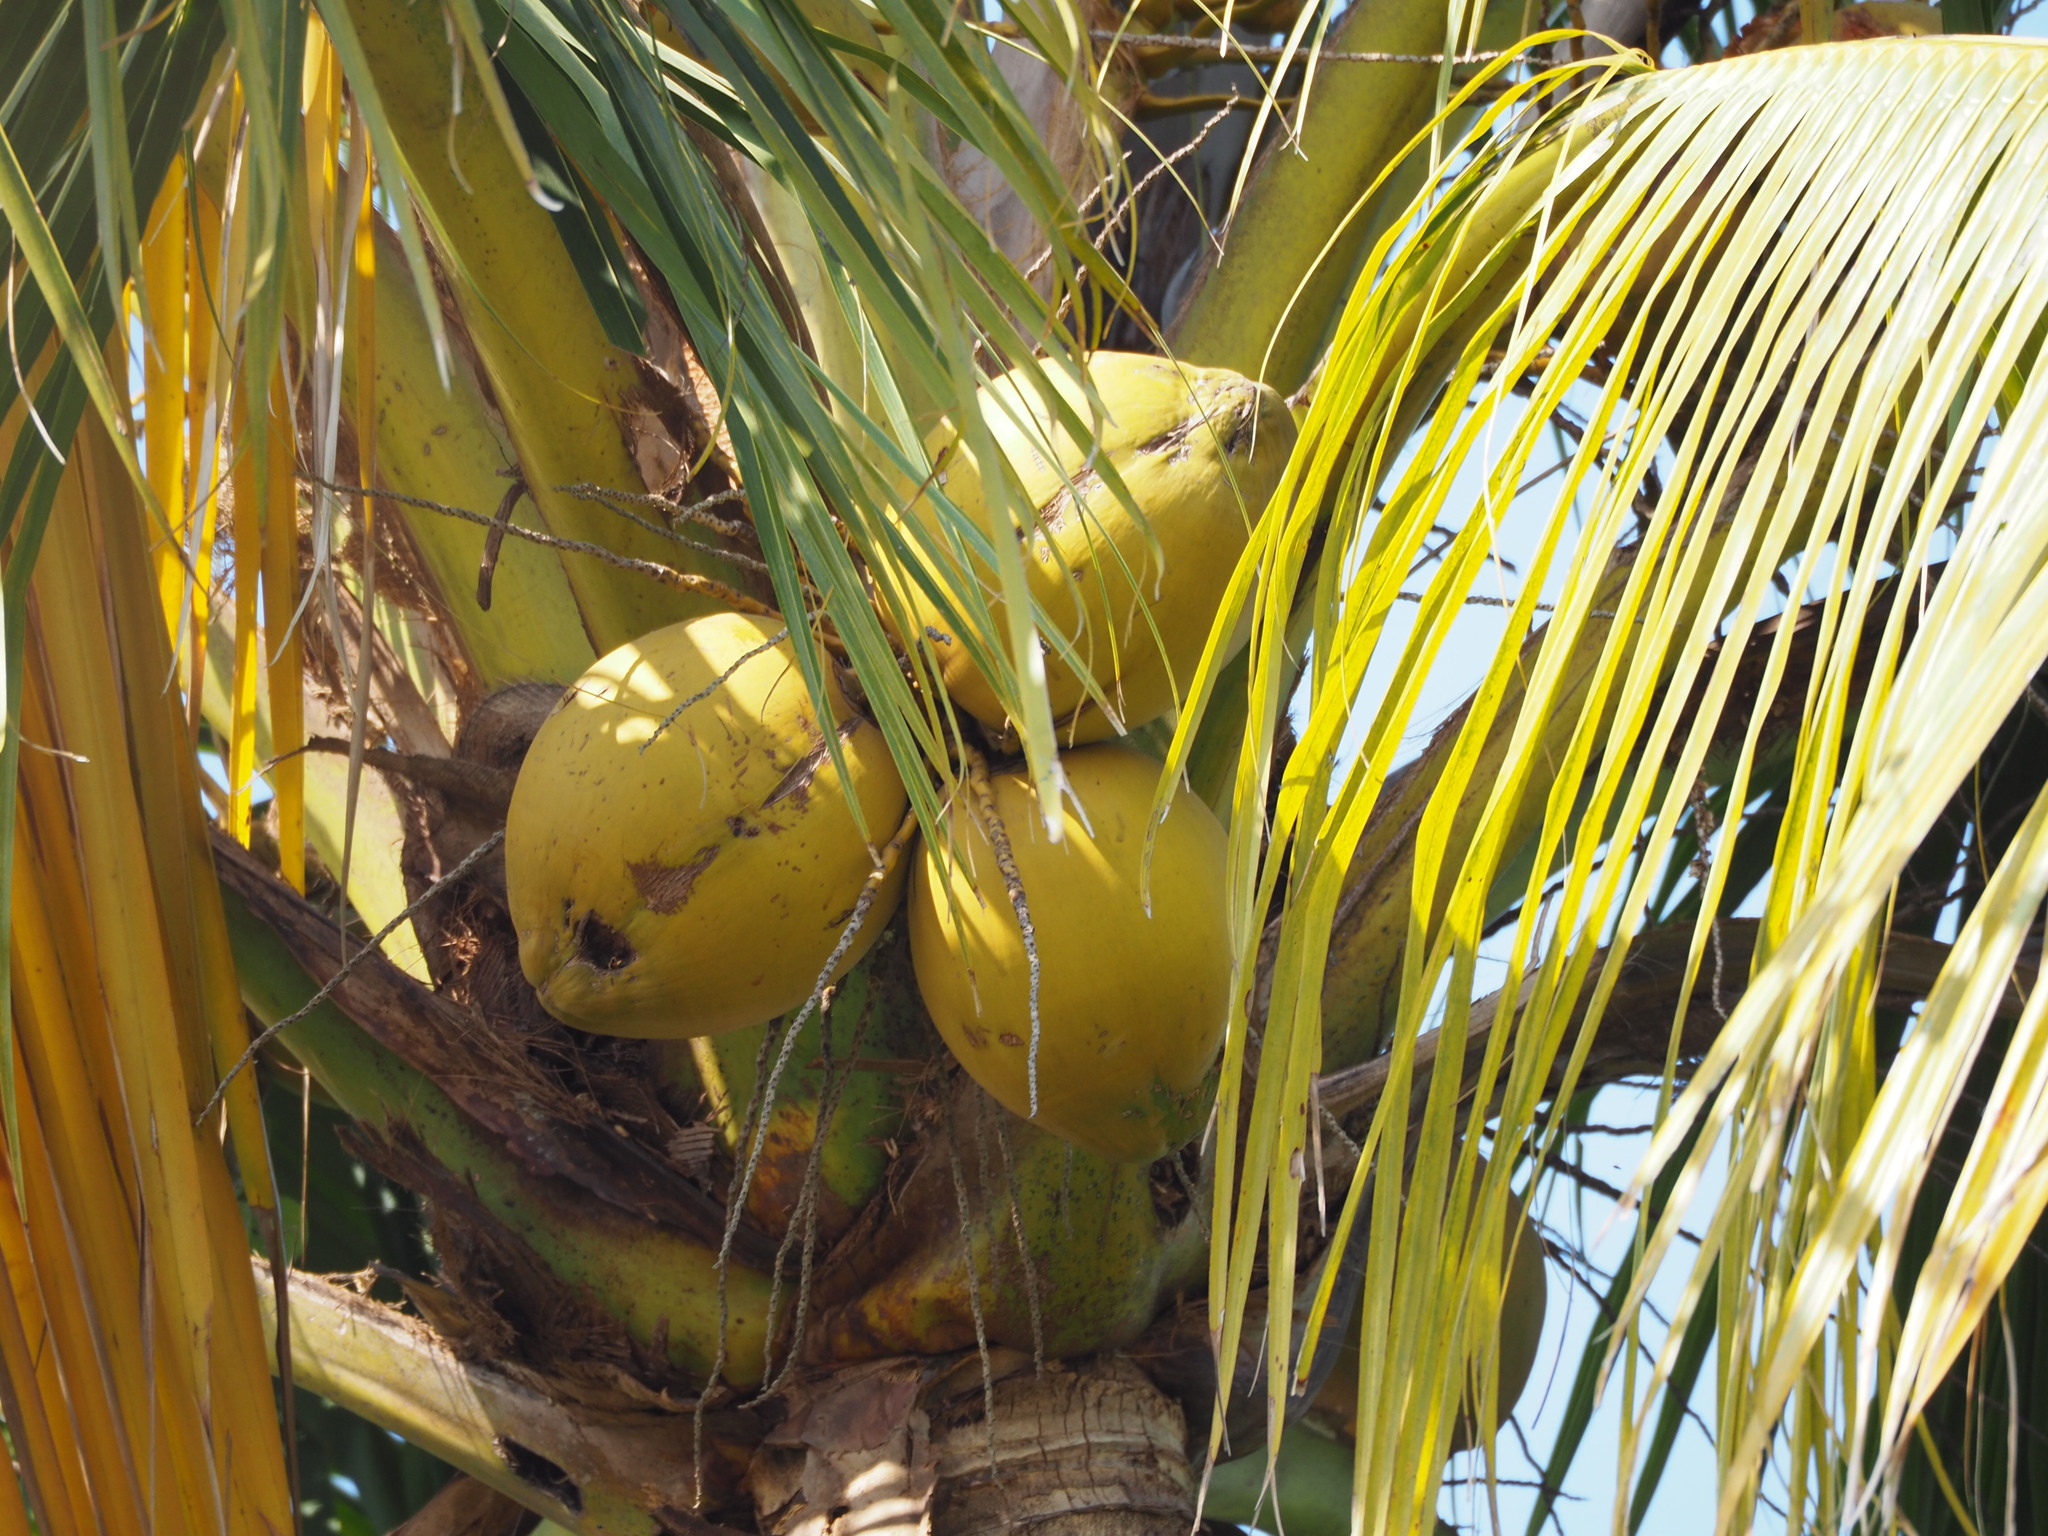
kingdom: Plantae
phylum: Tracheophyta
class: Liliopsida
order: Arecales
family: Arecaceae
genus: Cocos
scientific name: Cocos nucifera
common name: Coconut palm
